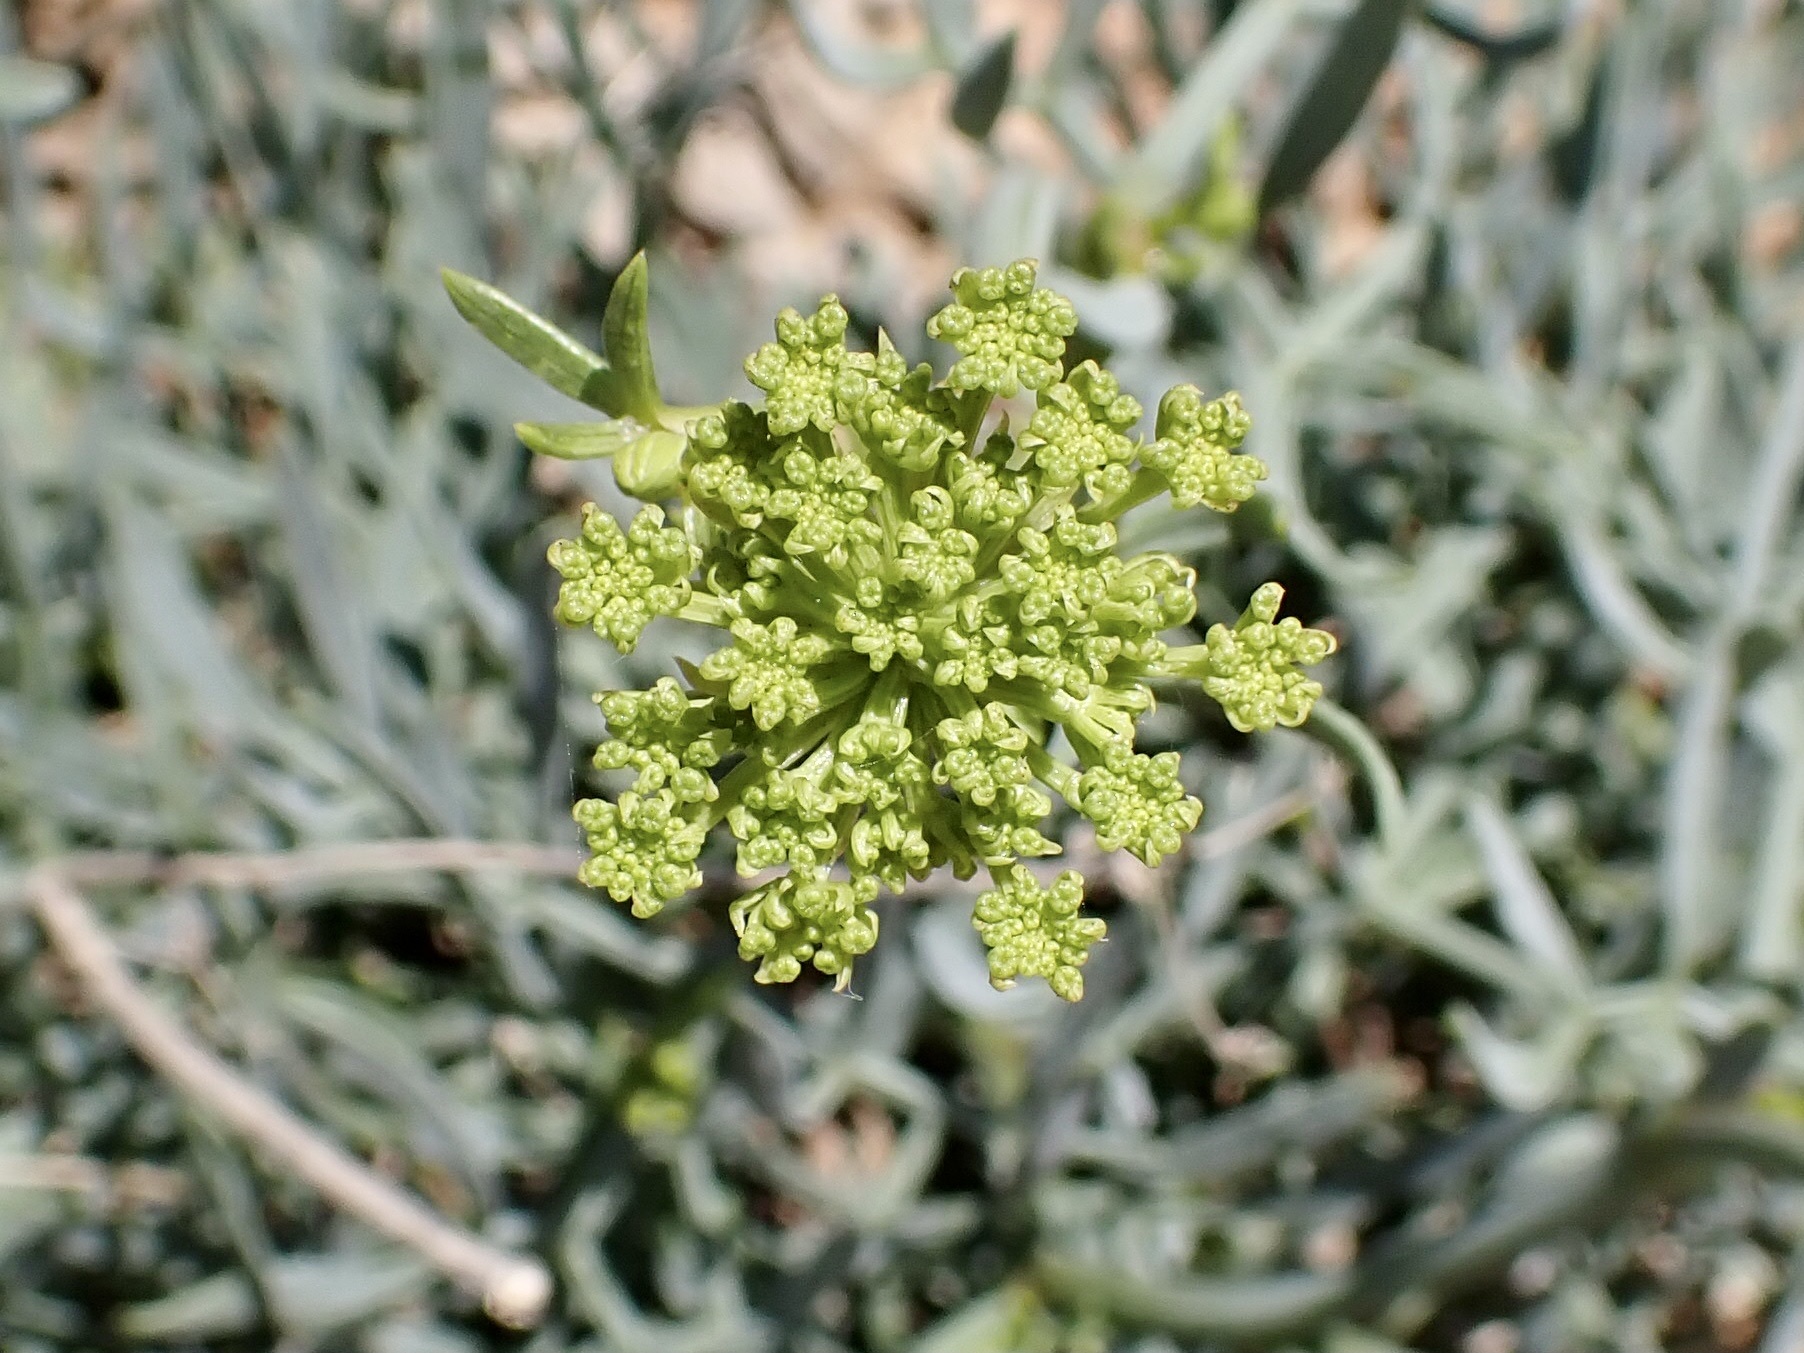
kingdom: Plantae
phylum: Tracheophyta
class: Magnoliopsida
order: Apiales
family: Apiaceae
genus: Crithmum
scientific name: Crithmum maritimum
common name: Rock samphire
